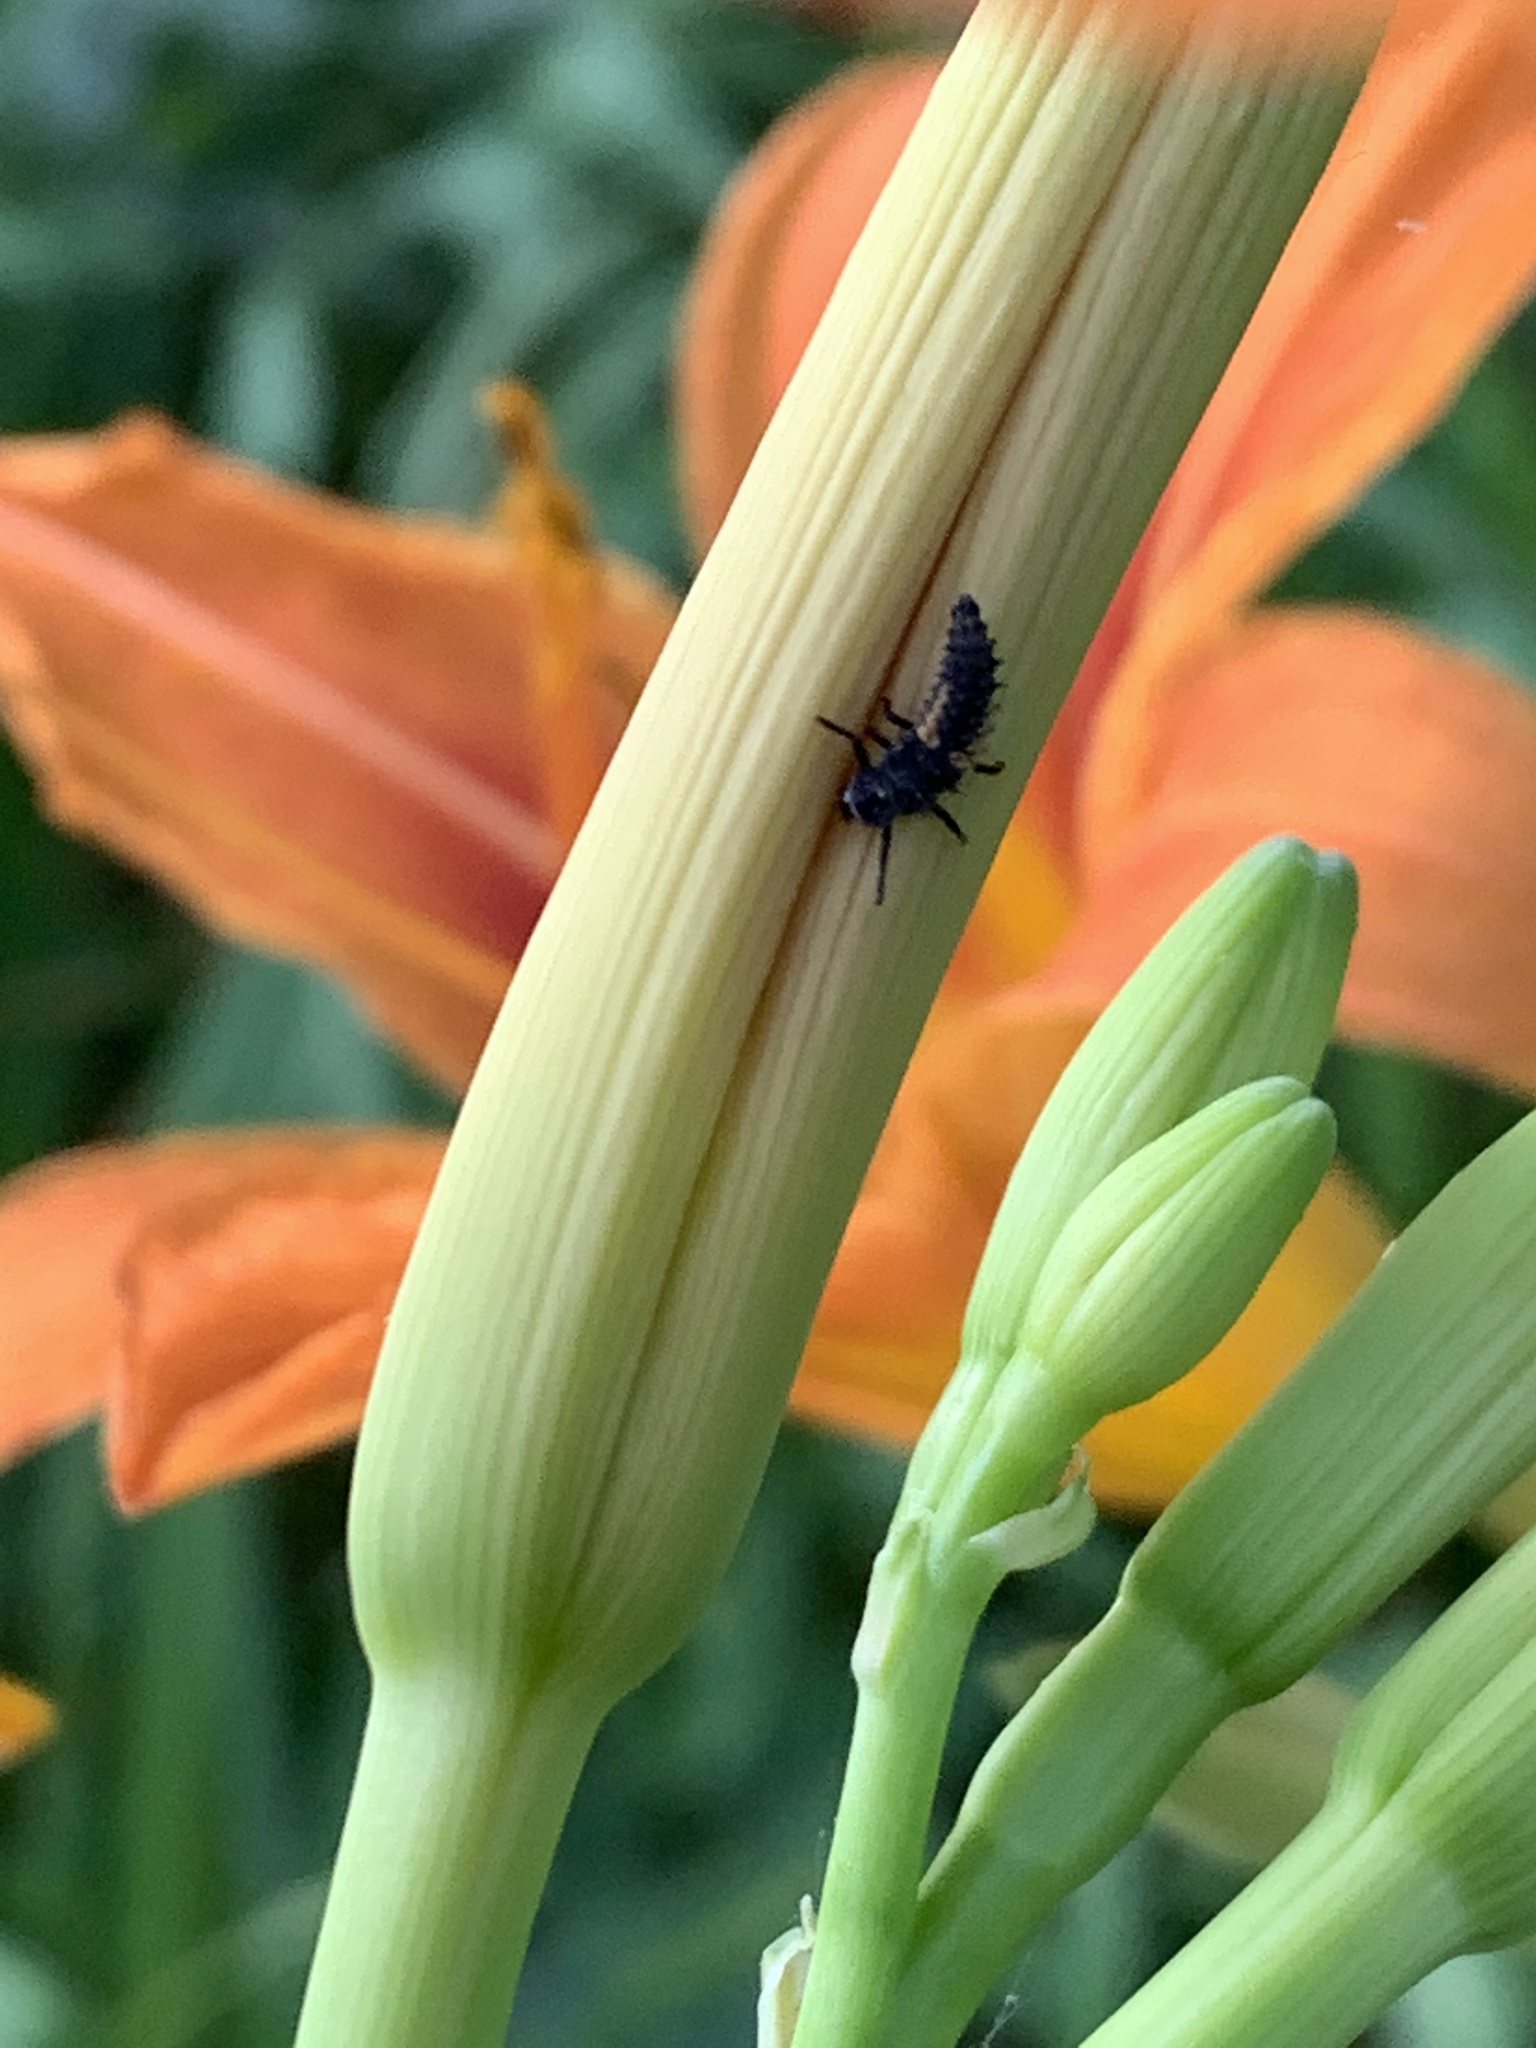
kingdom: Animalia
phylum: Arthropoda
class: Insecta
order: Coleoptera
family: Coccinellidae
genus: Harmonia
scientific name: Harmonia axyridis
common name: Harlequin ladybird
